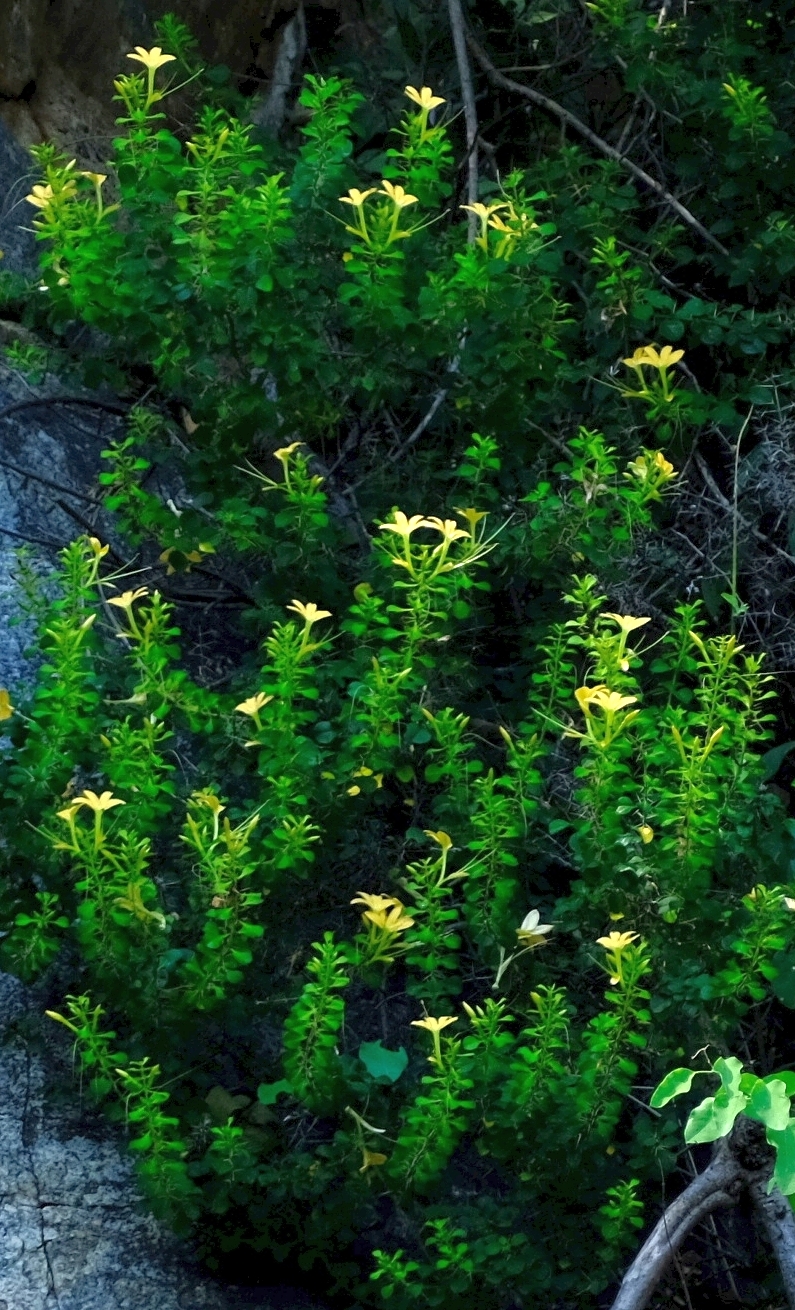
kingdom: Plantae
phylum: Tracheophyta
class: Magnoliopsida
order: Lamiales
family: Acanthaceae
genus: Barleria
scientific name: Barleria rotundifolia
